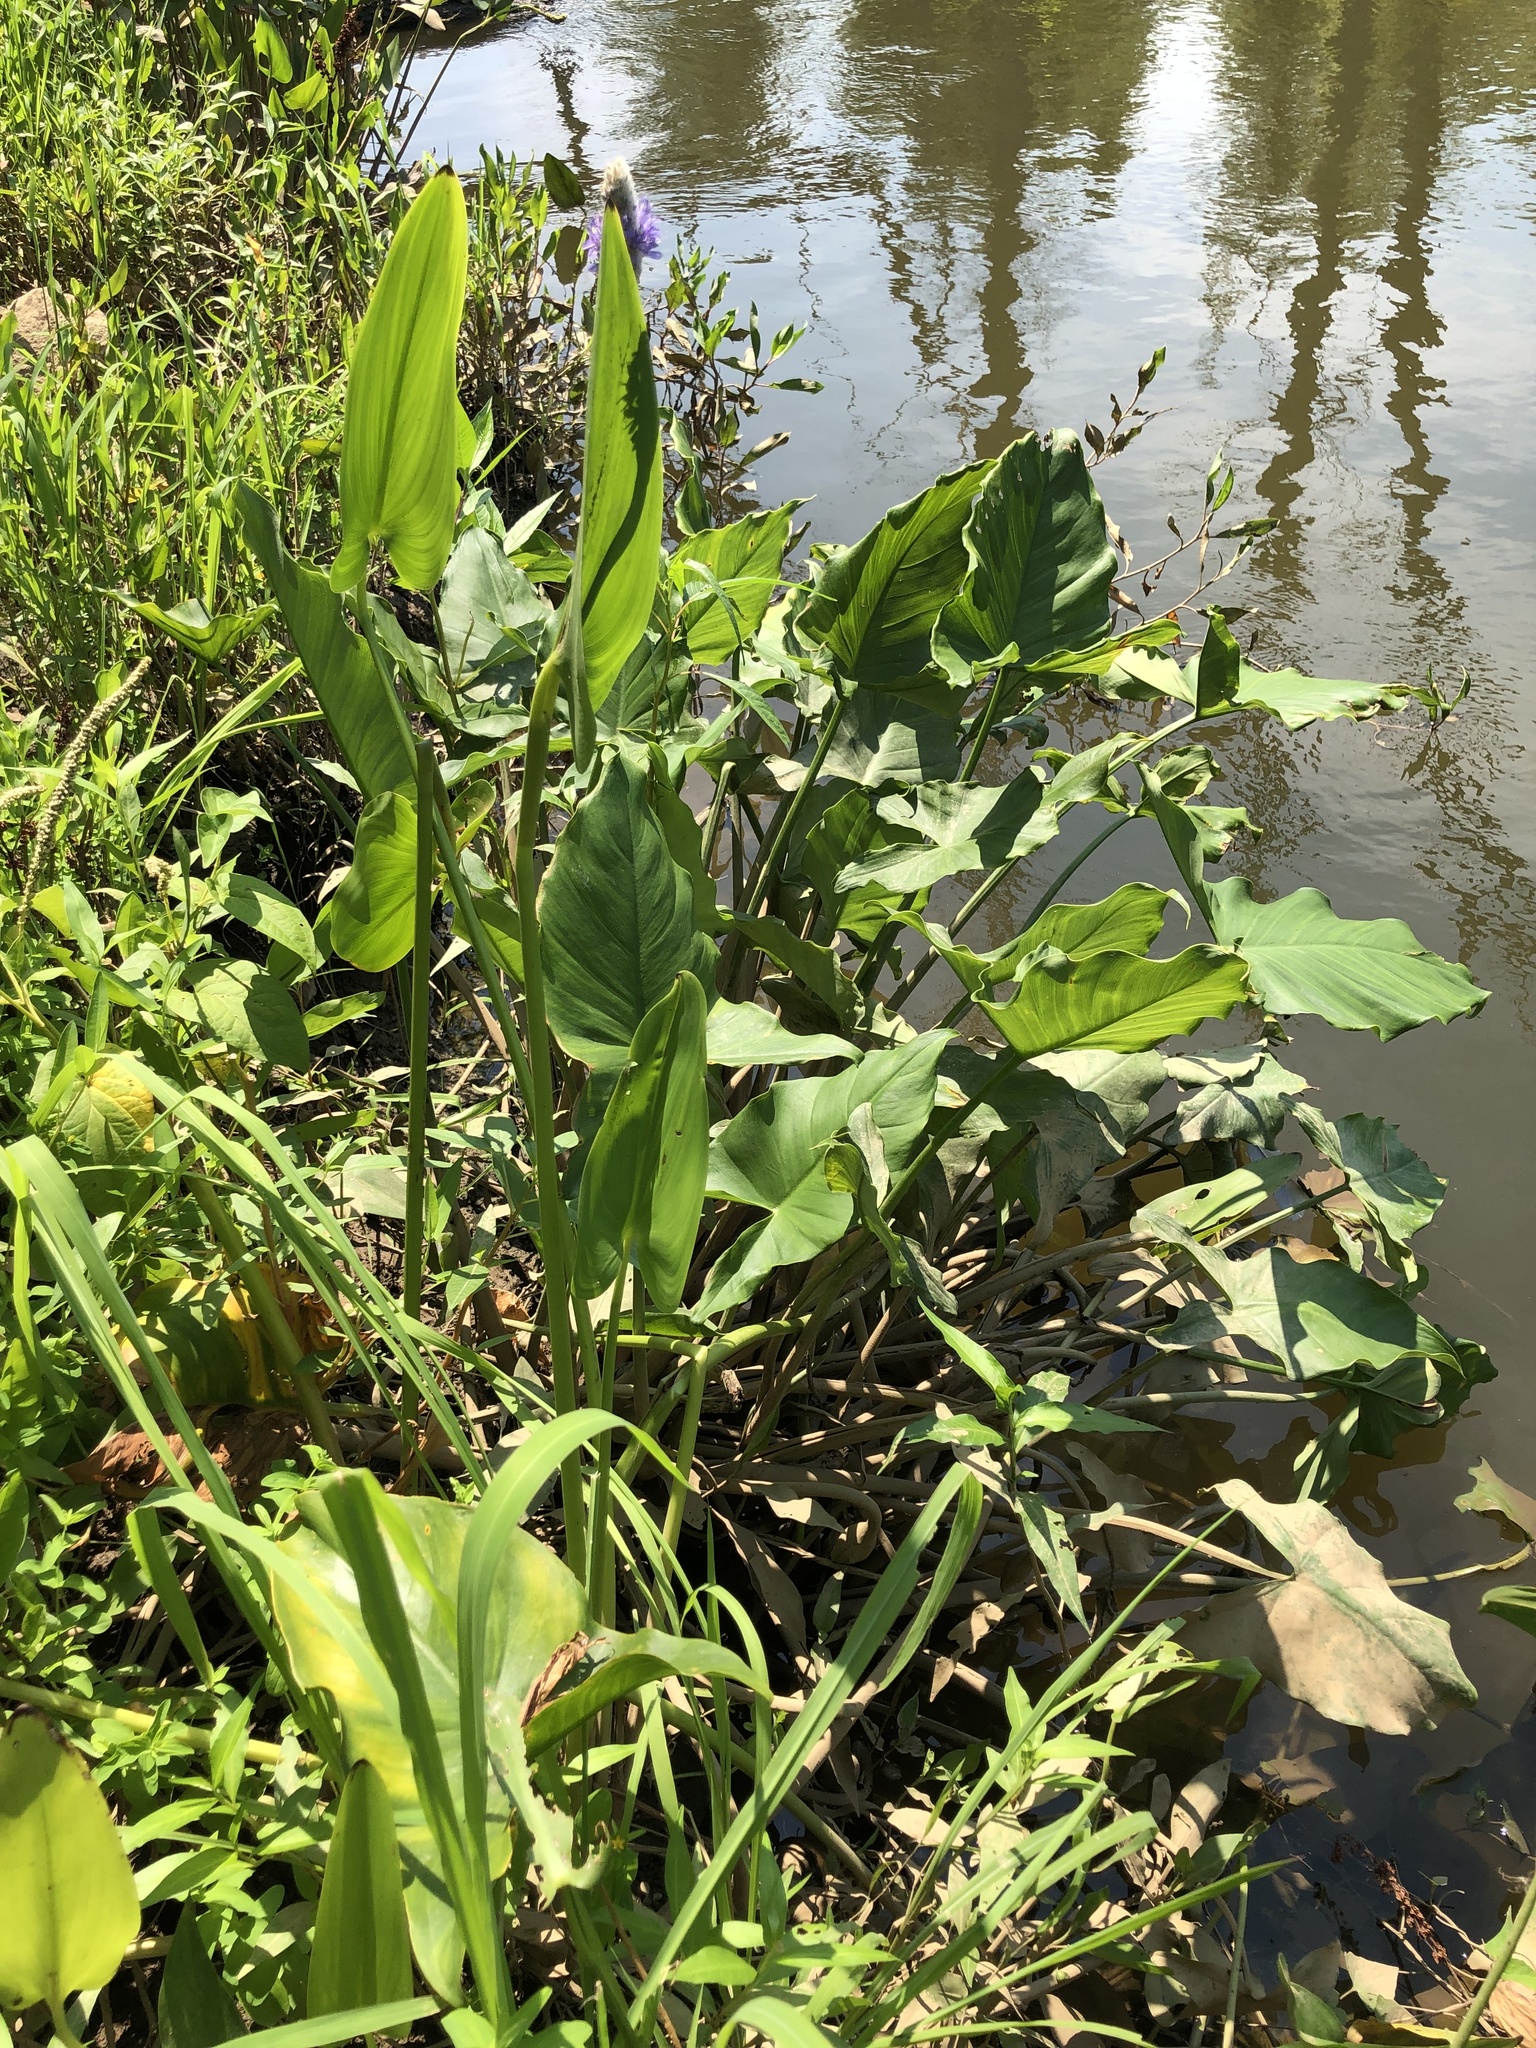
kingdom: Plantae
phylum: Tracheophyta
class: Liliopsida
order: Commelinales
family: Pontederiaceae
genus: Pontederia
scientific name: Pontederia cordata
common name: Pickerelweed
